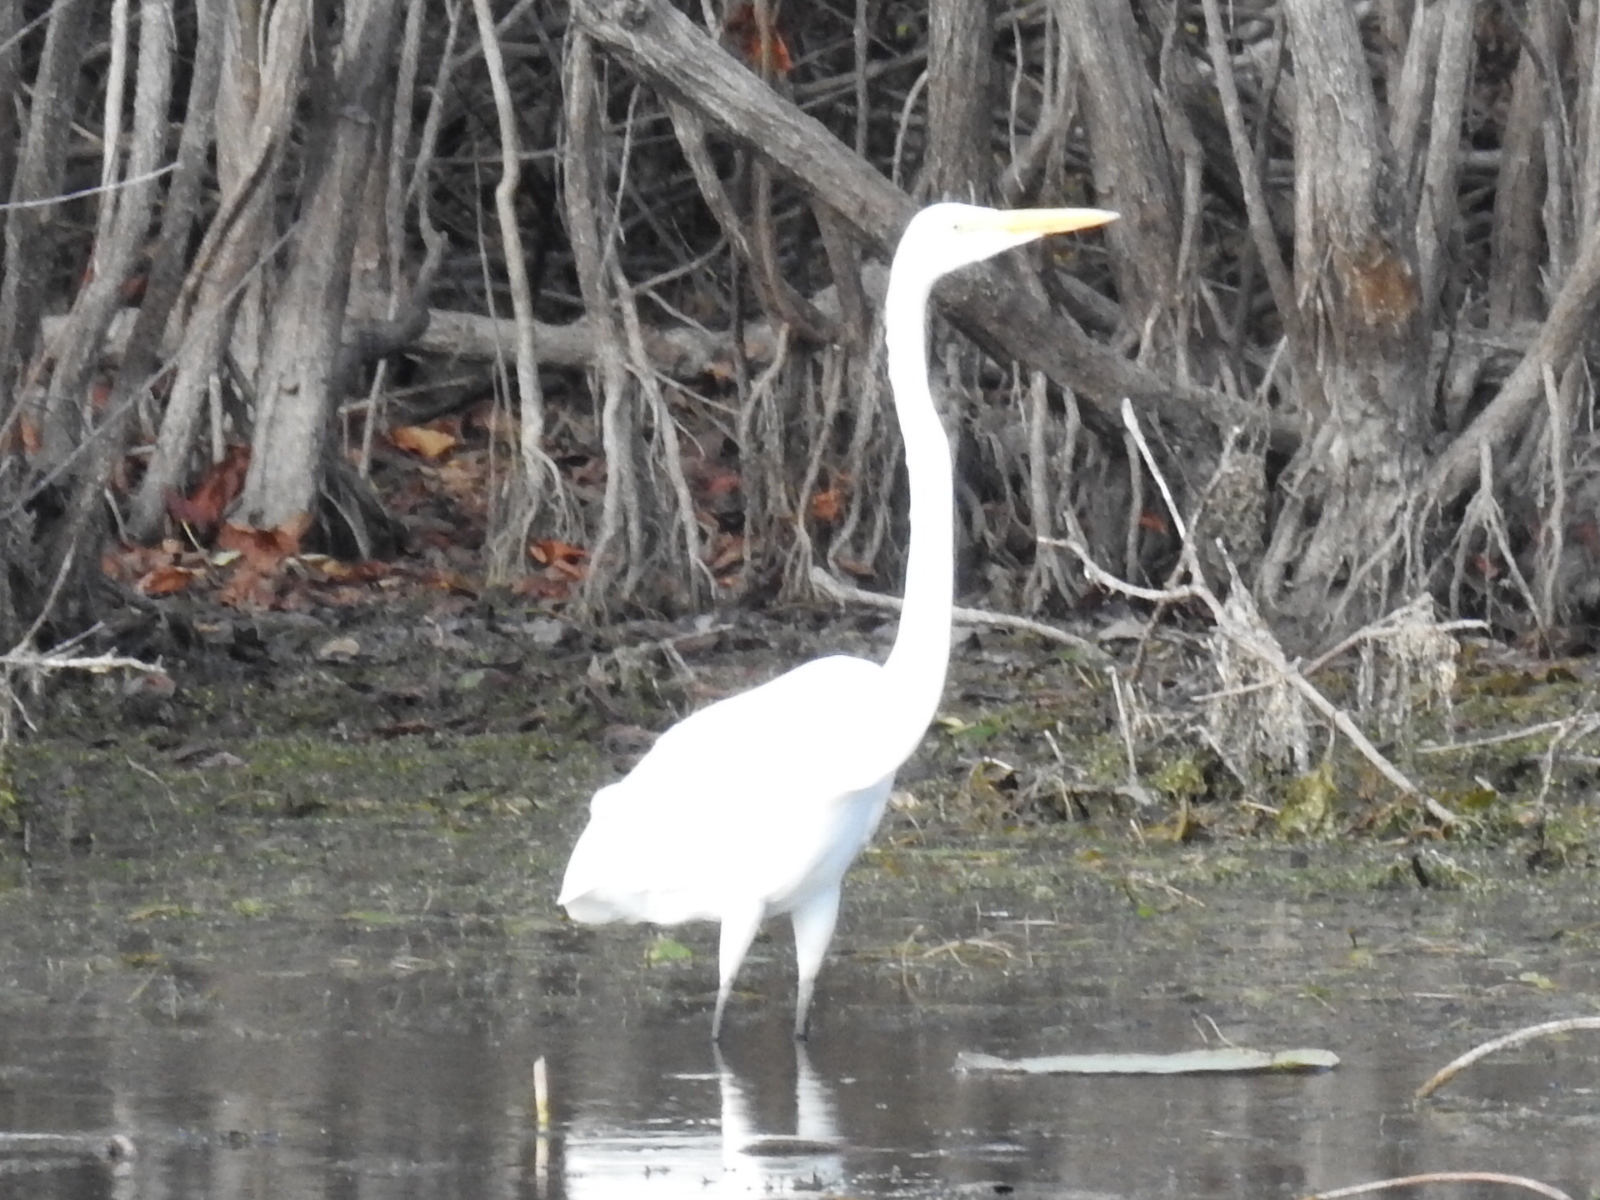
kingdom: Animalia
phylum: Chordata
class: Aves
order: Pelecaniformes
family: Ardeidae
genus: Ardea
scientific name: Ardea alba
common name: Great egret
